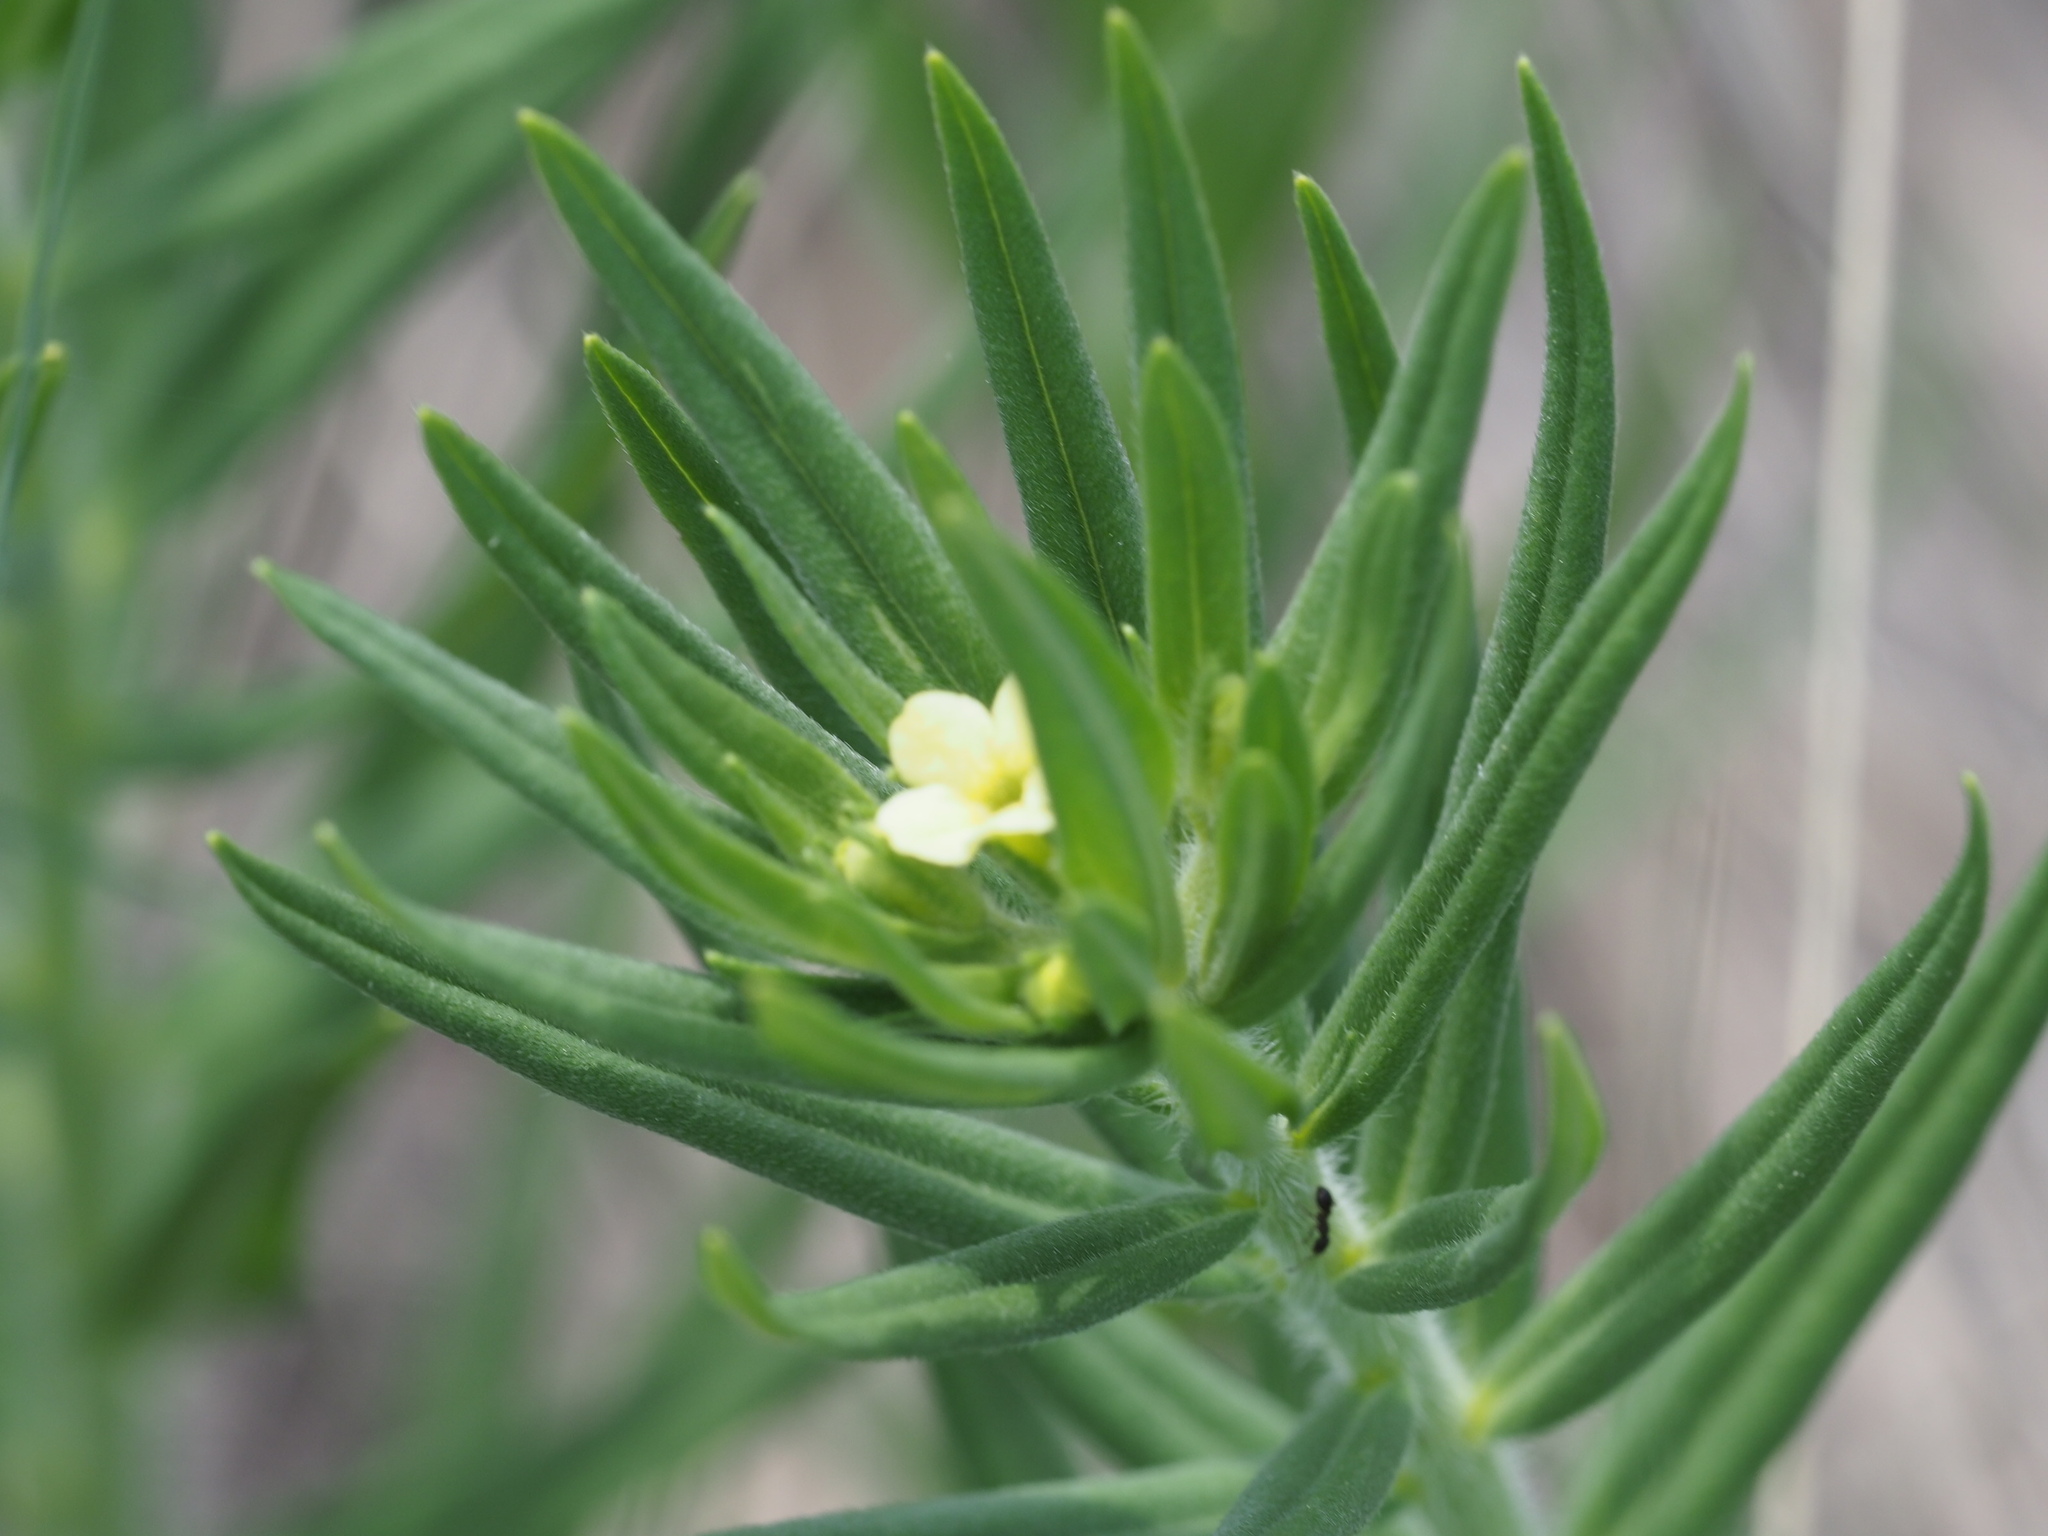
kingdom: Plantae
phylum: Tracheophyta
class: Magnoliopsida
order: Boraginales
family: Boraginaceae
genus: Lithospermum
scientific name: Lithospermum ruderale
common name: Western gromwell
